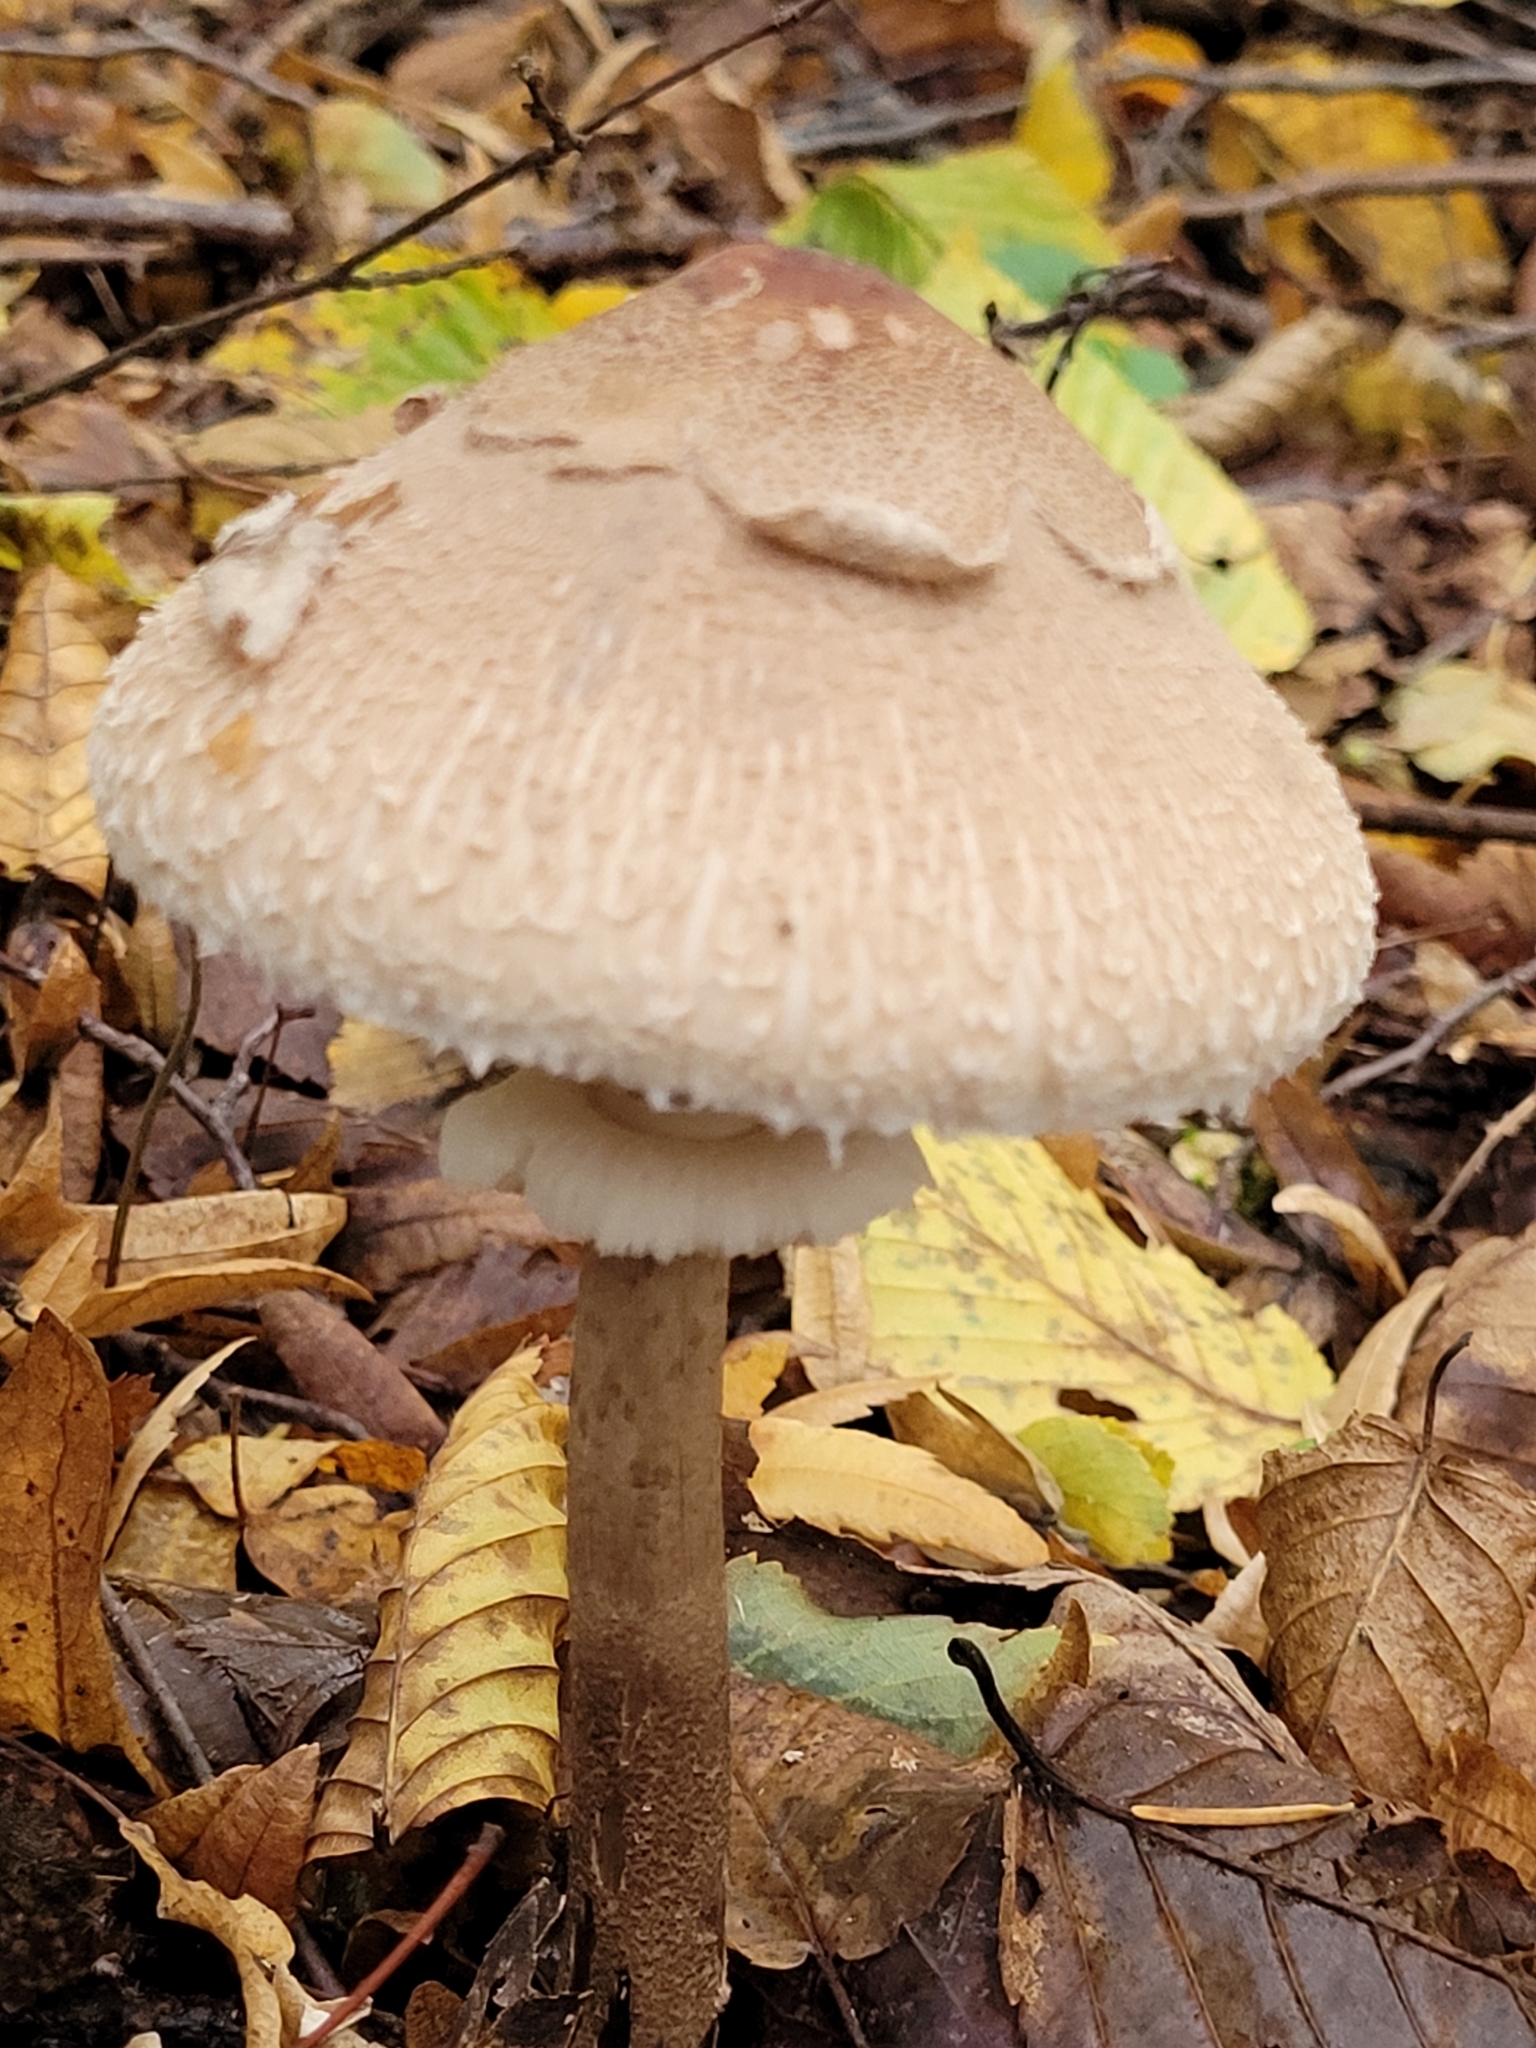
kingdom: Fungi
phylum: Basidiomycota
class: Agaricomycetes
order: Agaricales
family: Agaricaceae
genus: Macrolepiota
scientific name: Macrolepiota fuliginosa
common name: Sooty parasol
